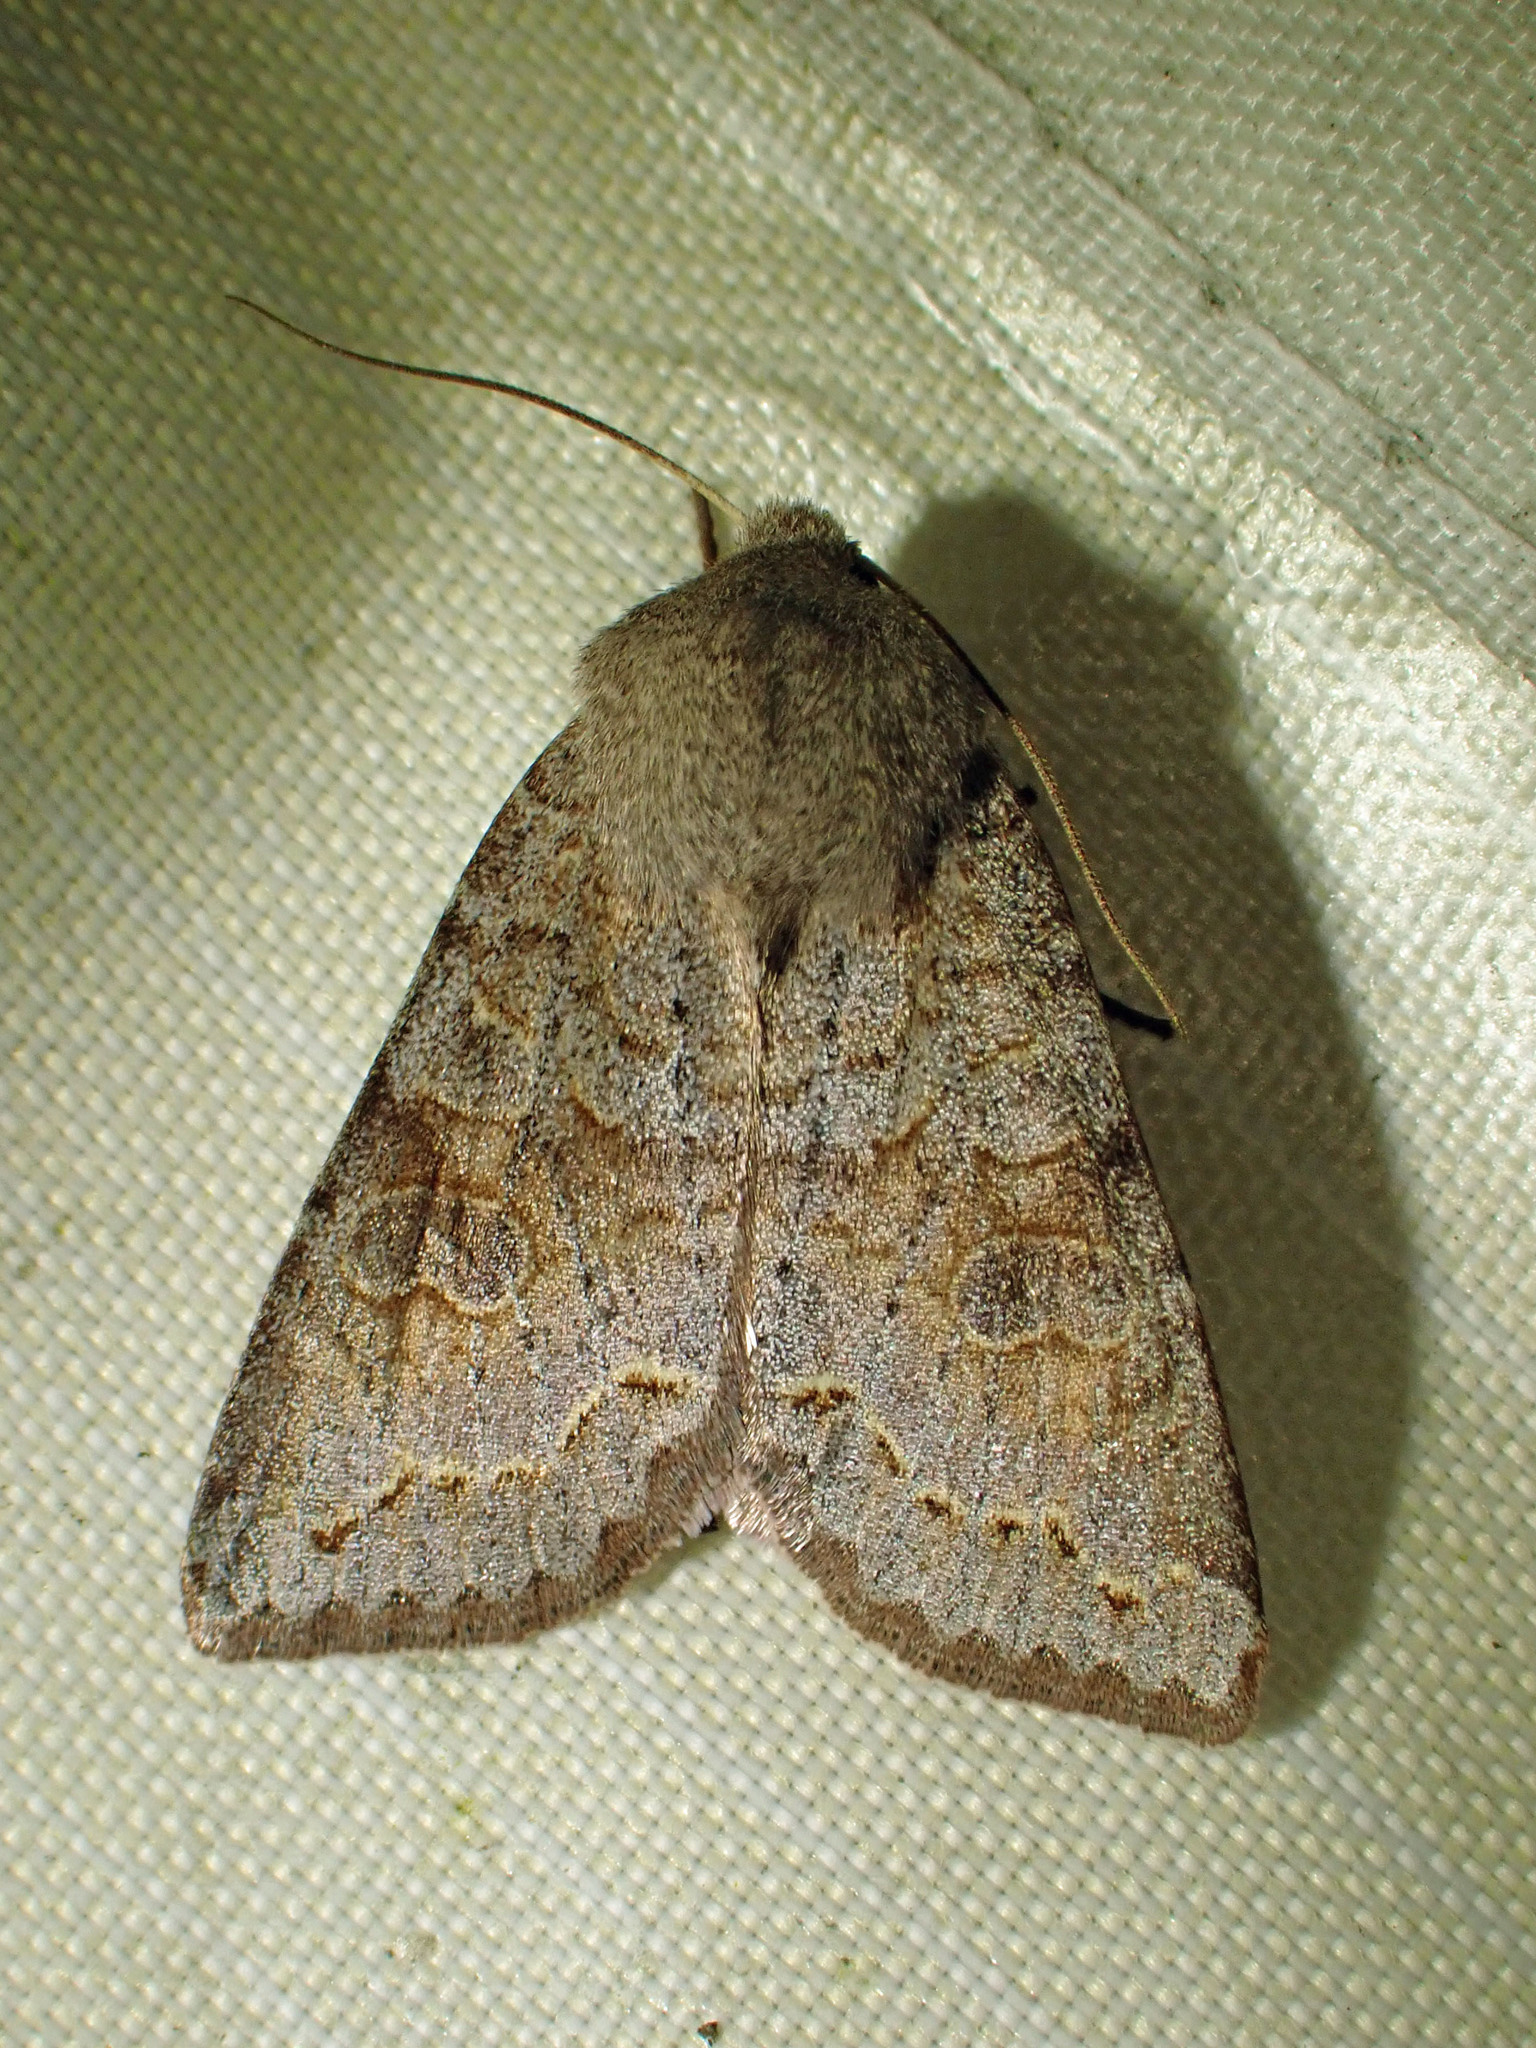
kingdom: Animalia
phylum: Arthropoda
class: Insecta
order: Lepidoptera
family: Noctuidae
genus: Orthosia
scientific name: Orthosia revicta
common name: Rusty whitesided caterpillar
